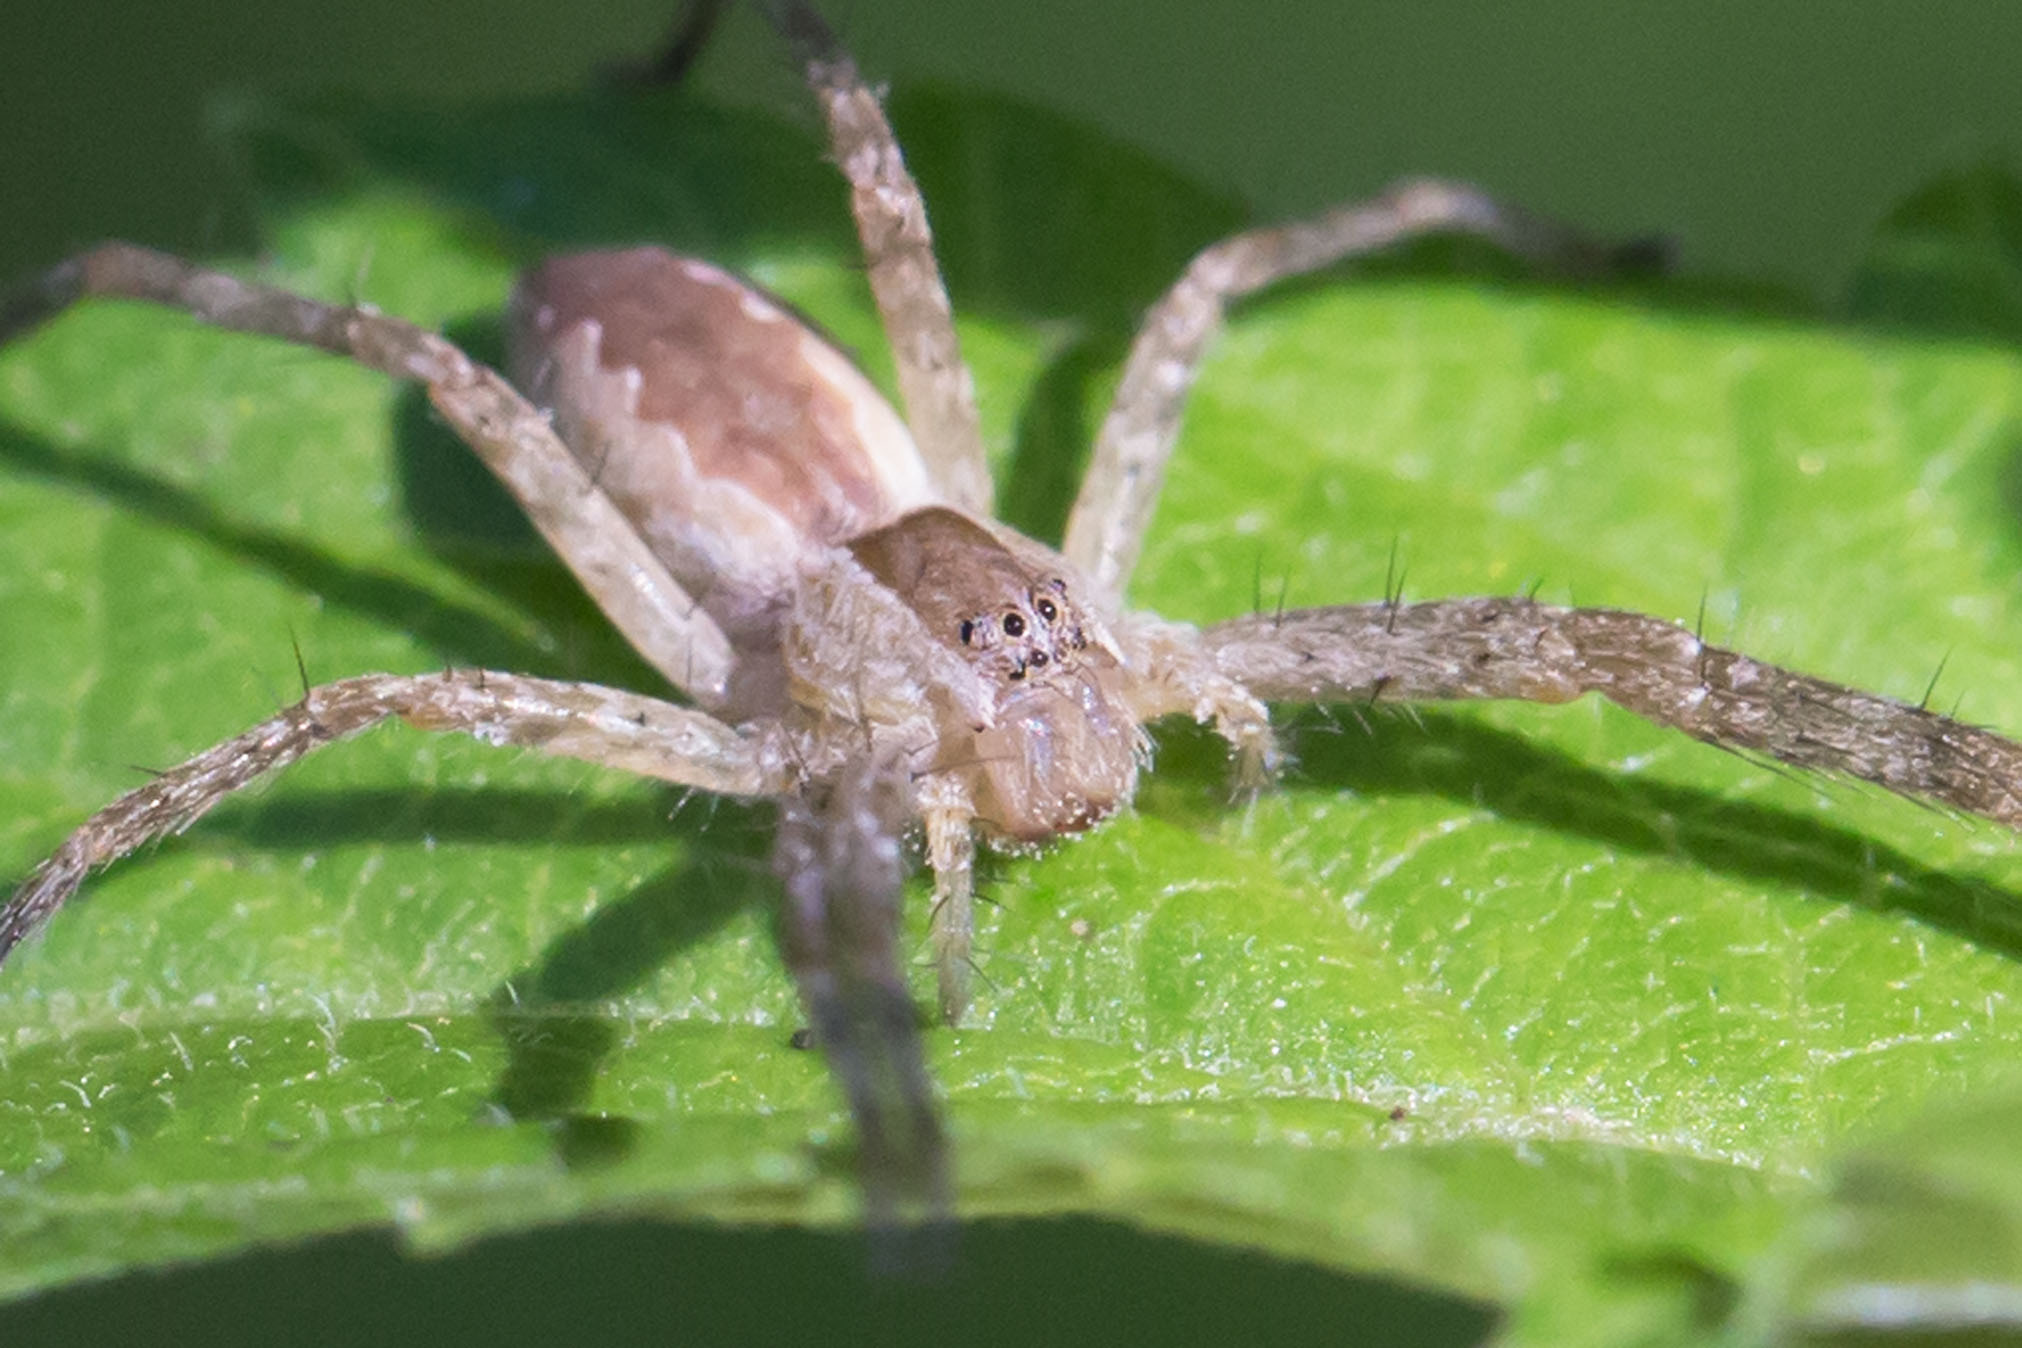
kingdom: Animalia
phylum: Arthropoda
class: Arachnida
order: Araneae
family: Pisauridae
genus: Pisaurina
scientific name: Pisaurina mira
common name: American nursery web spider
